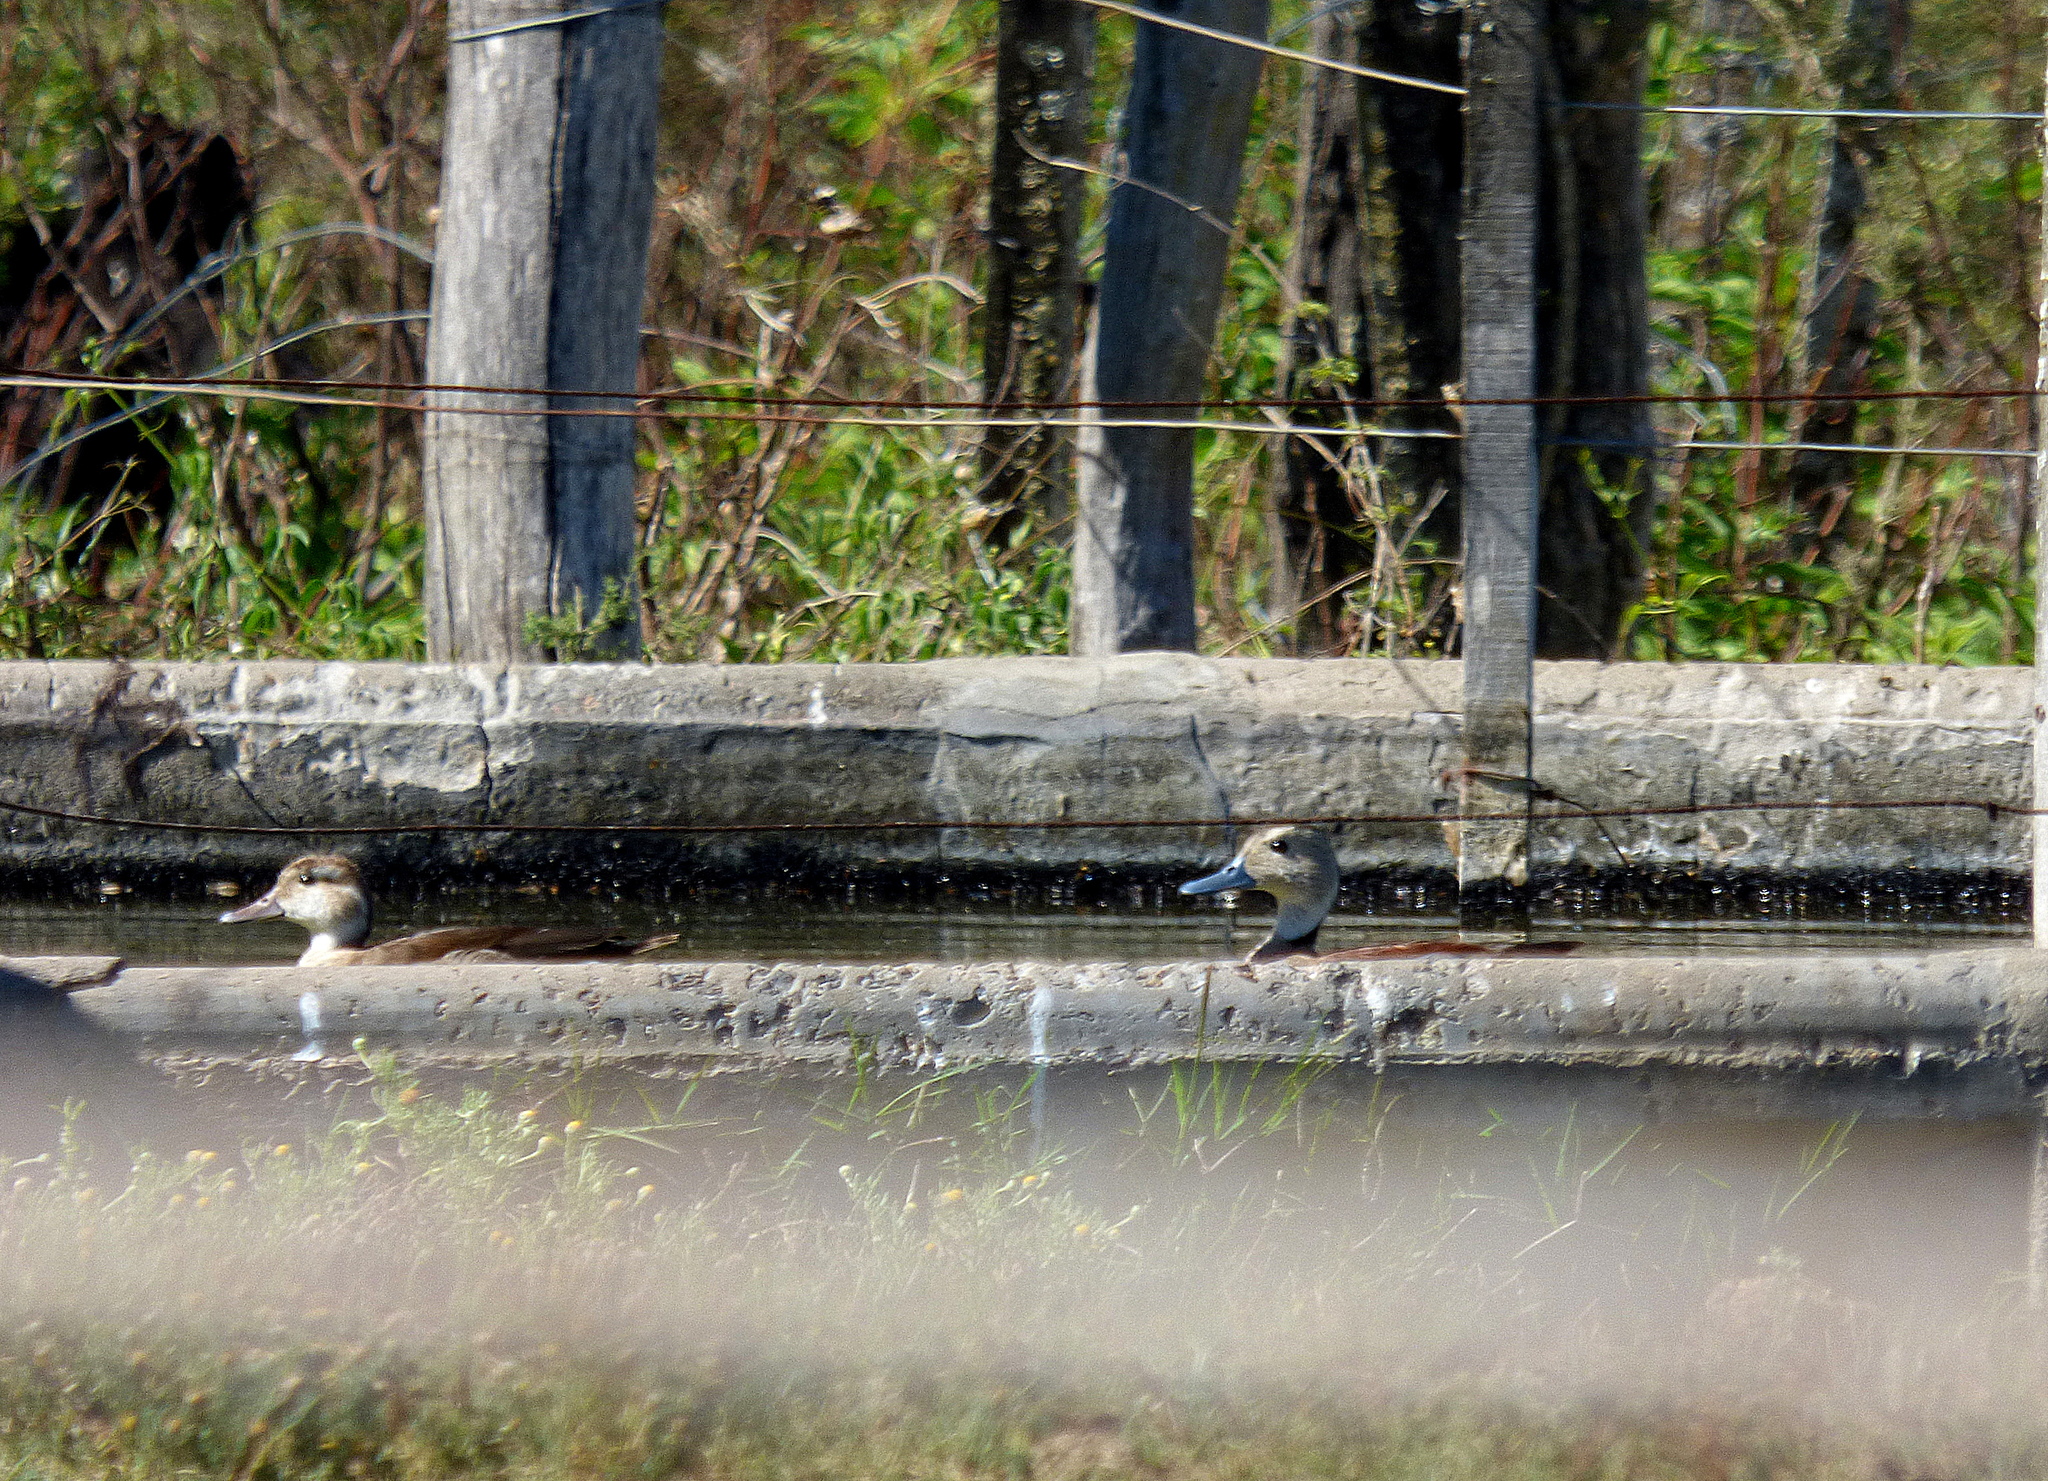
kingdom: Animalia
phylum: Chordata
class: Aves
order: Anseriformes
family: Anatidae
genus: Callonetta
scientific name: Callonetta leucophrys
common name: Ringed teal
